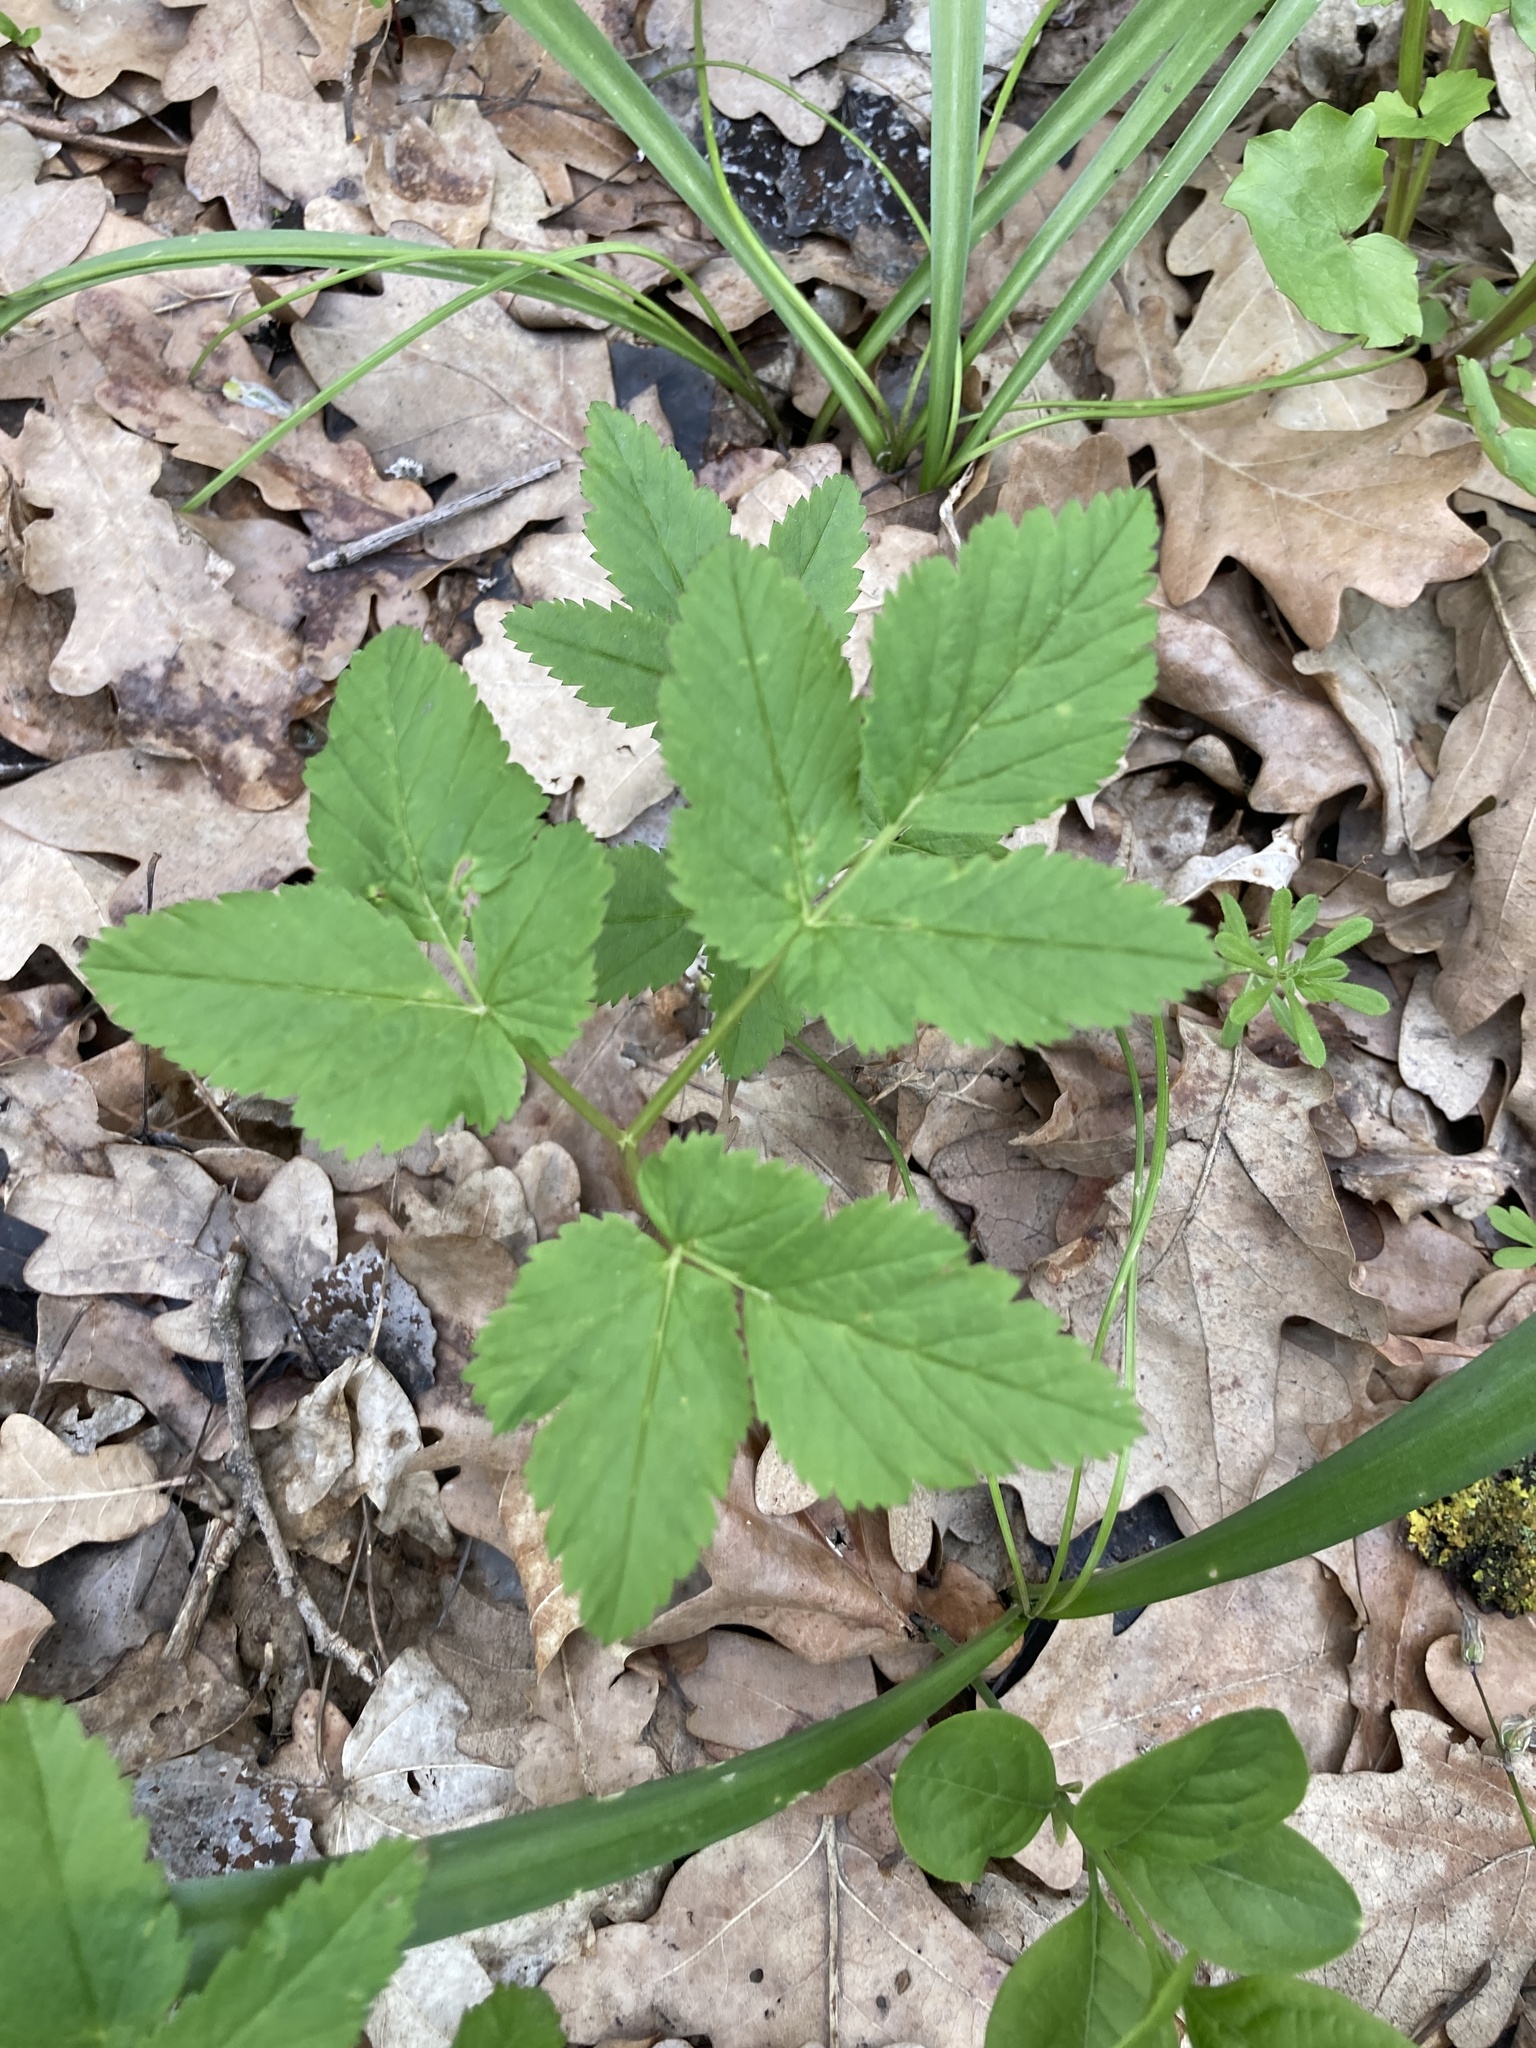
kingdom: Plantae
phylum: Tracheophyta
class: Magnoliopsida
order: Apiales
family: Apiaceae
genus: Aegopodium
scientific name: Aegopodium podagraria
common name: Ground-elder
